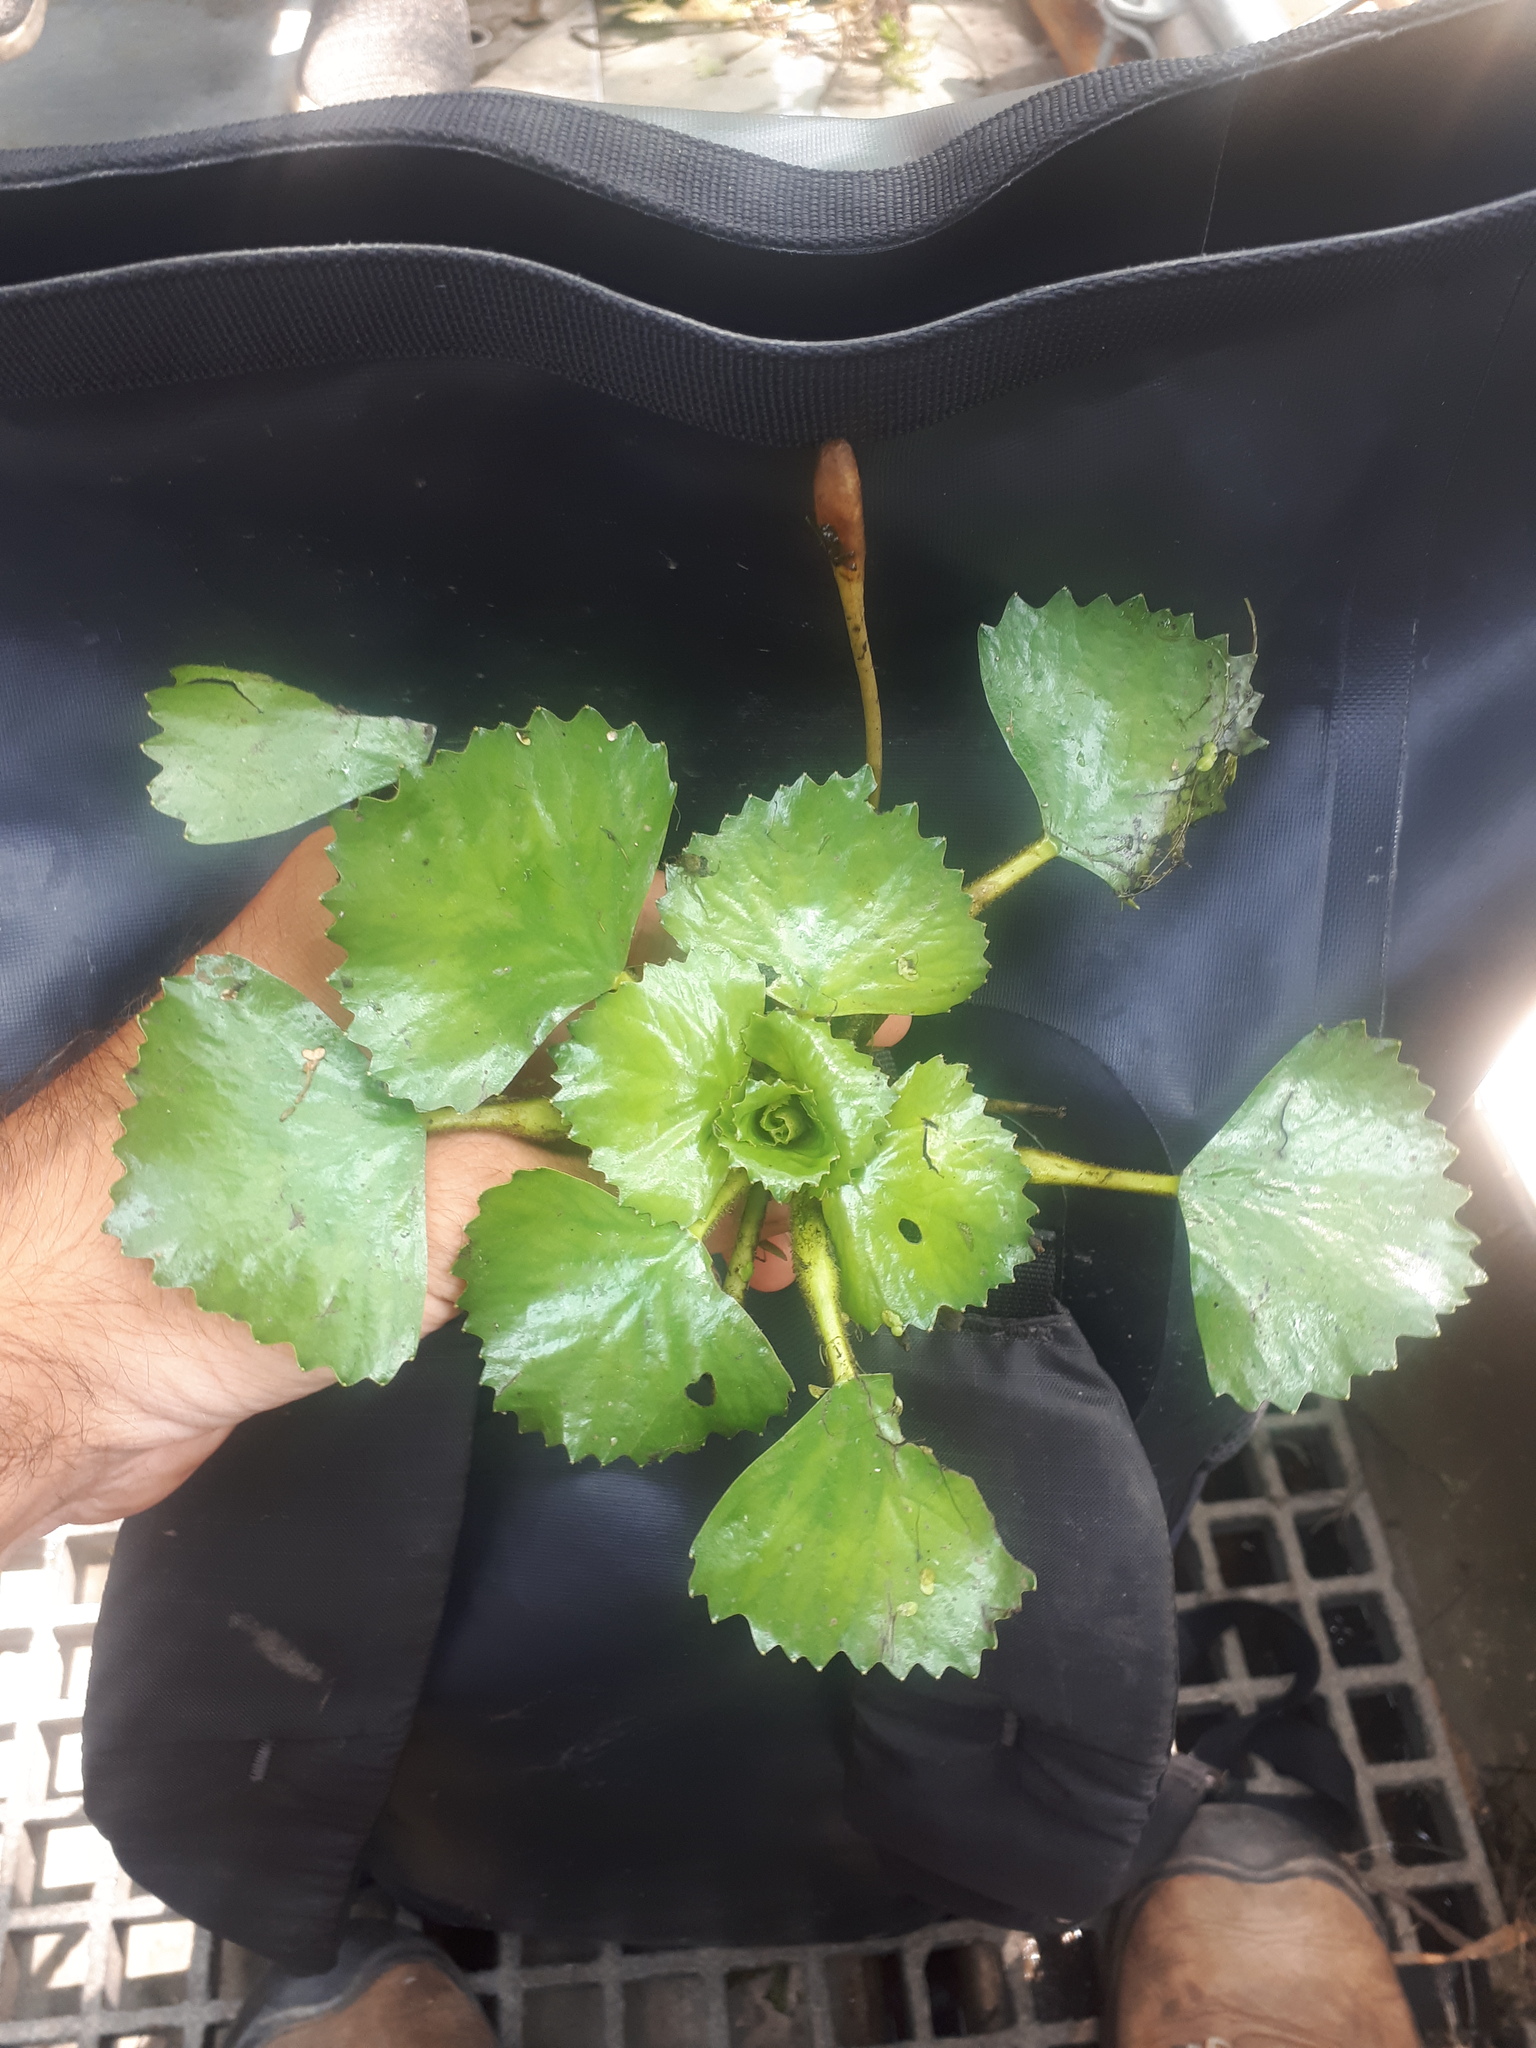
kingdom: Plantae
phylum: Tracheophyta
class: Magnoliopsida
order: Myrtales
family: Lythraceae
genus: Trapa
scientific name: Trapa natans
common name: Water chestnut
